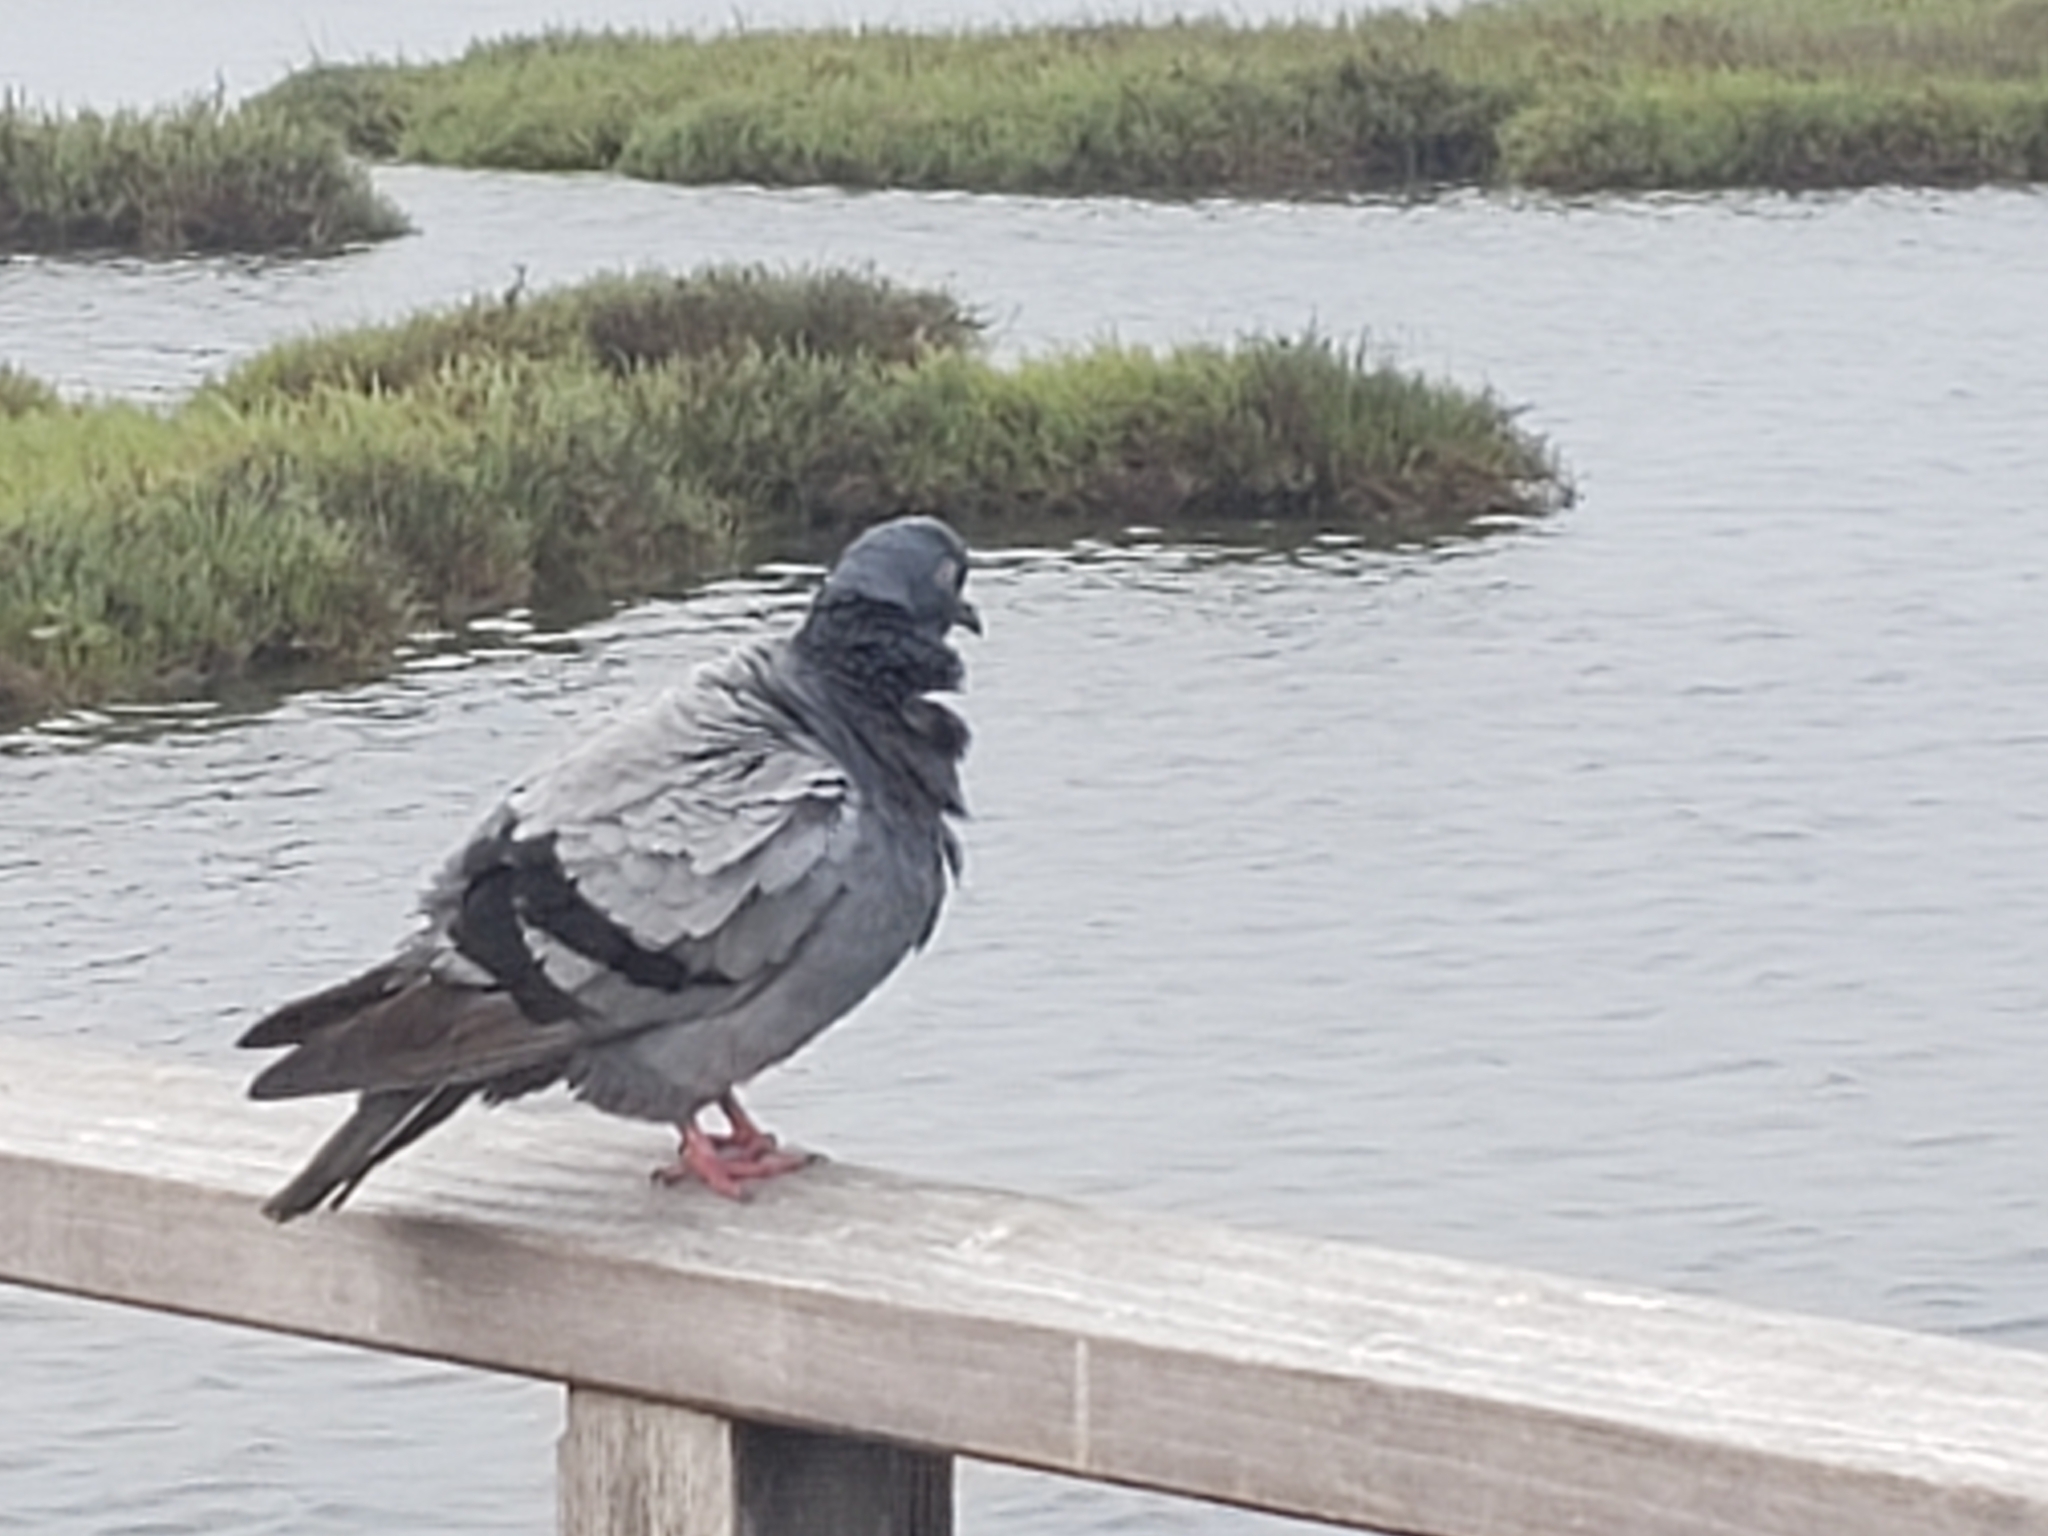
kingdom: Animalia
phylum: Chordata
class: Aves
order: Columbiformes
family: Columbidae
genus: Columba
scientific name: Columba livia
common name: Rock pigeon
